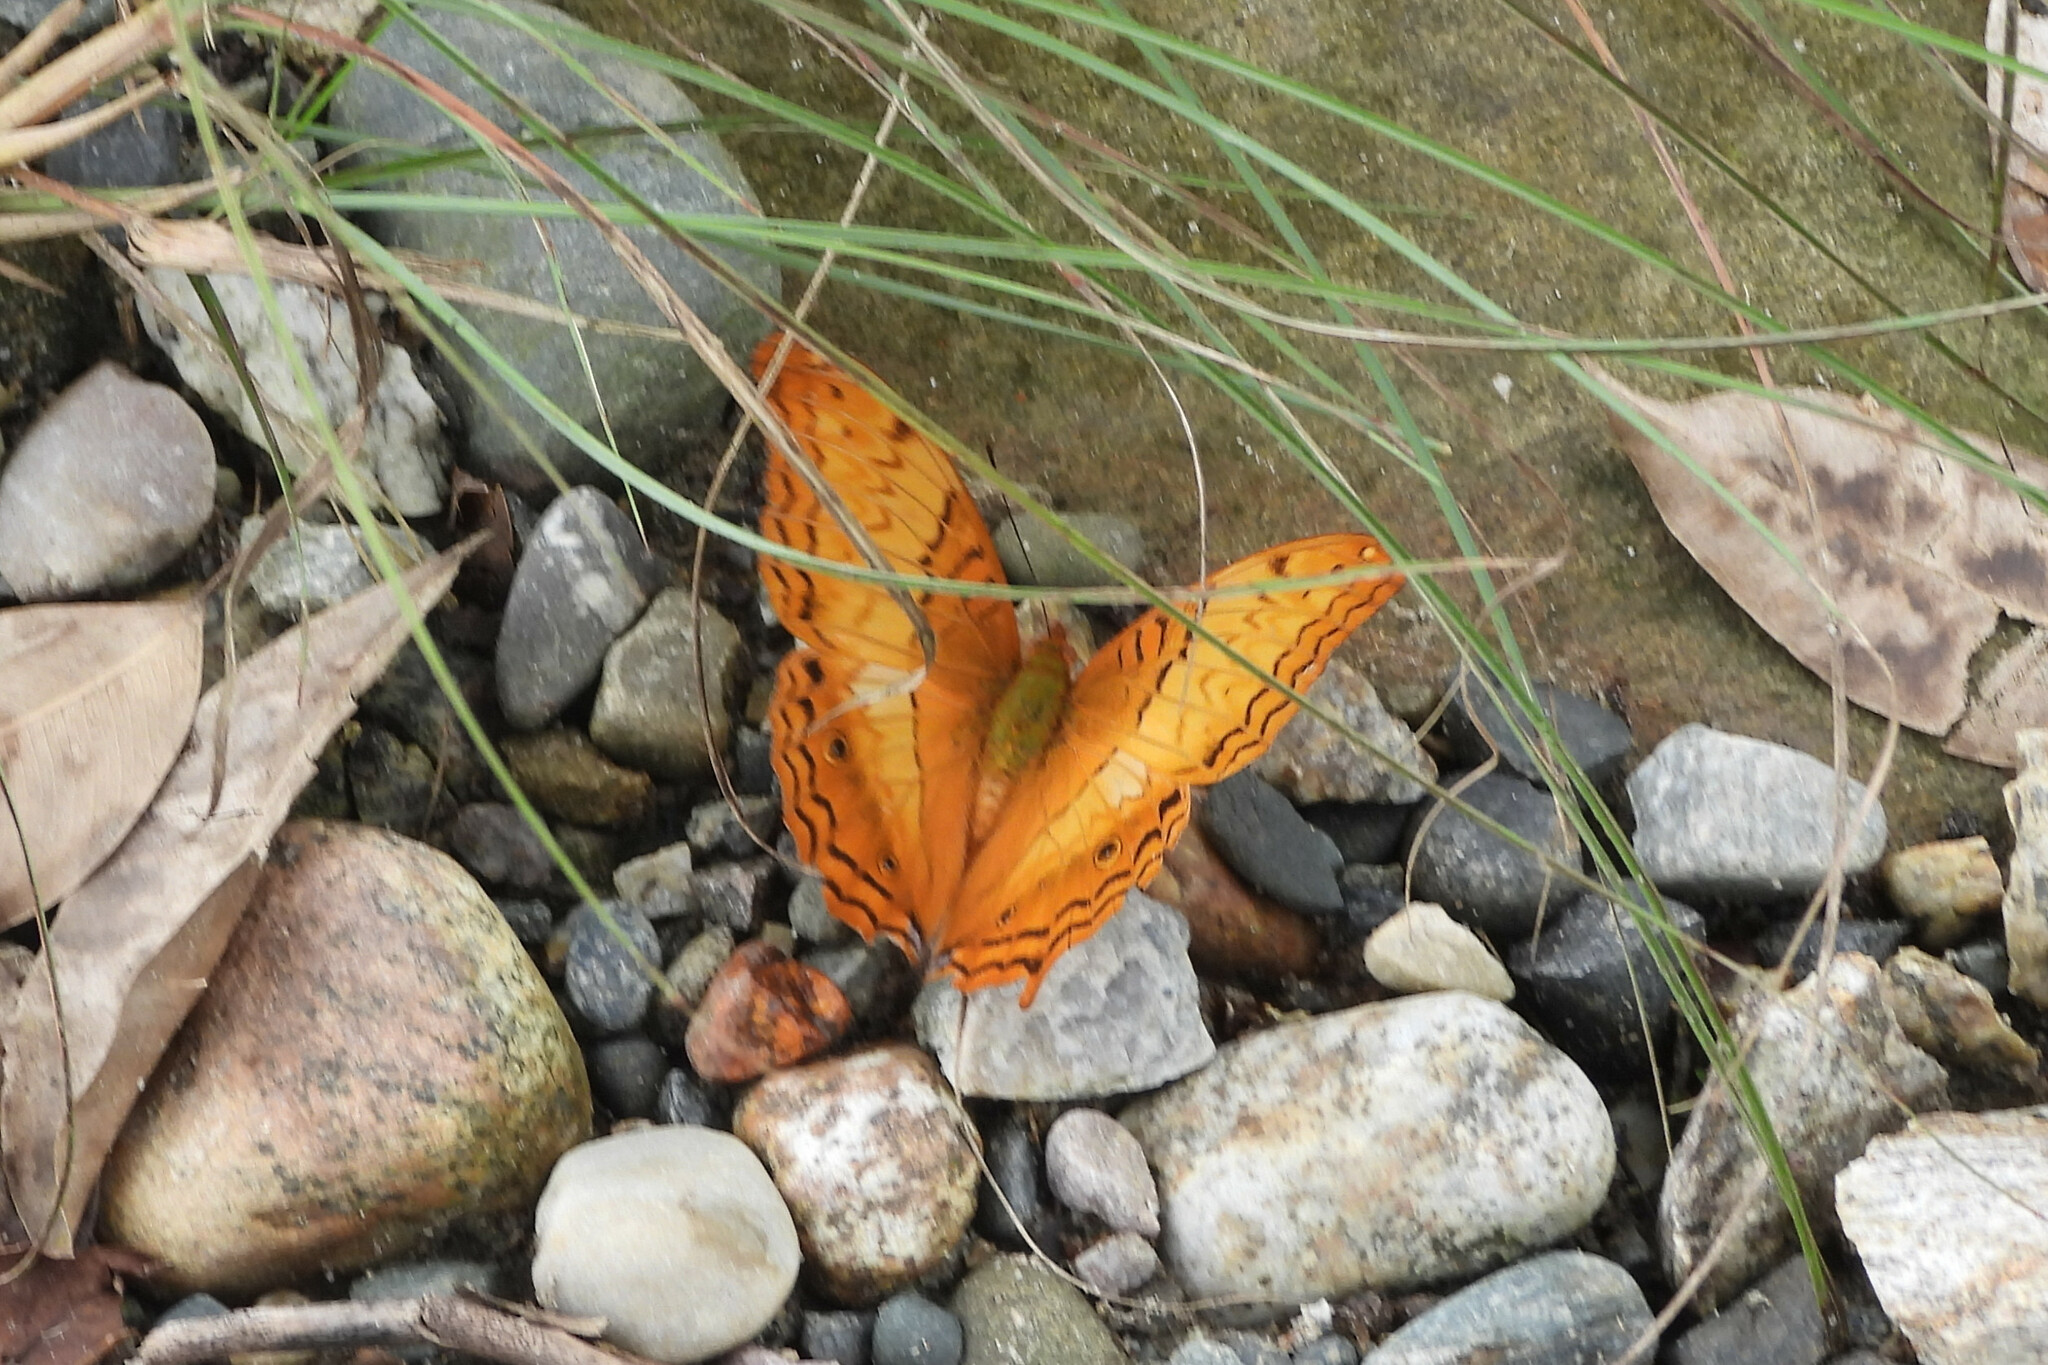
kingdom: Animalia
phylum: Arthropoda
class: Insecta
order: Lepidoptera
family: Nymphalidae
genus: Vindula
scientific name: Vindula erota
